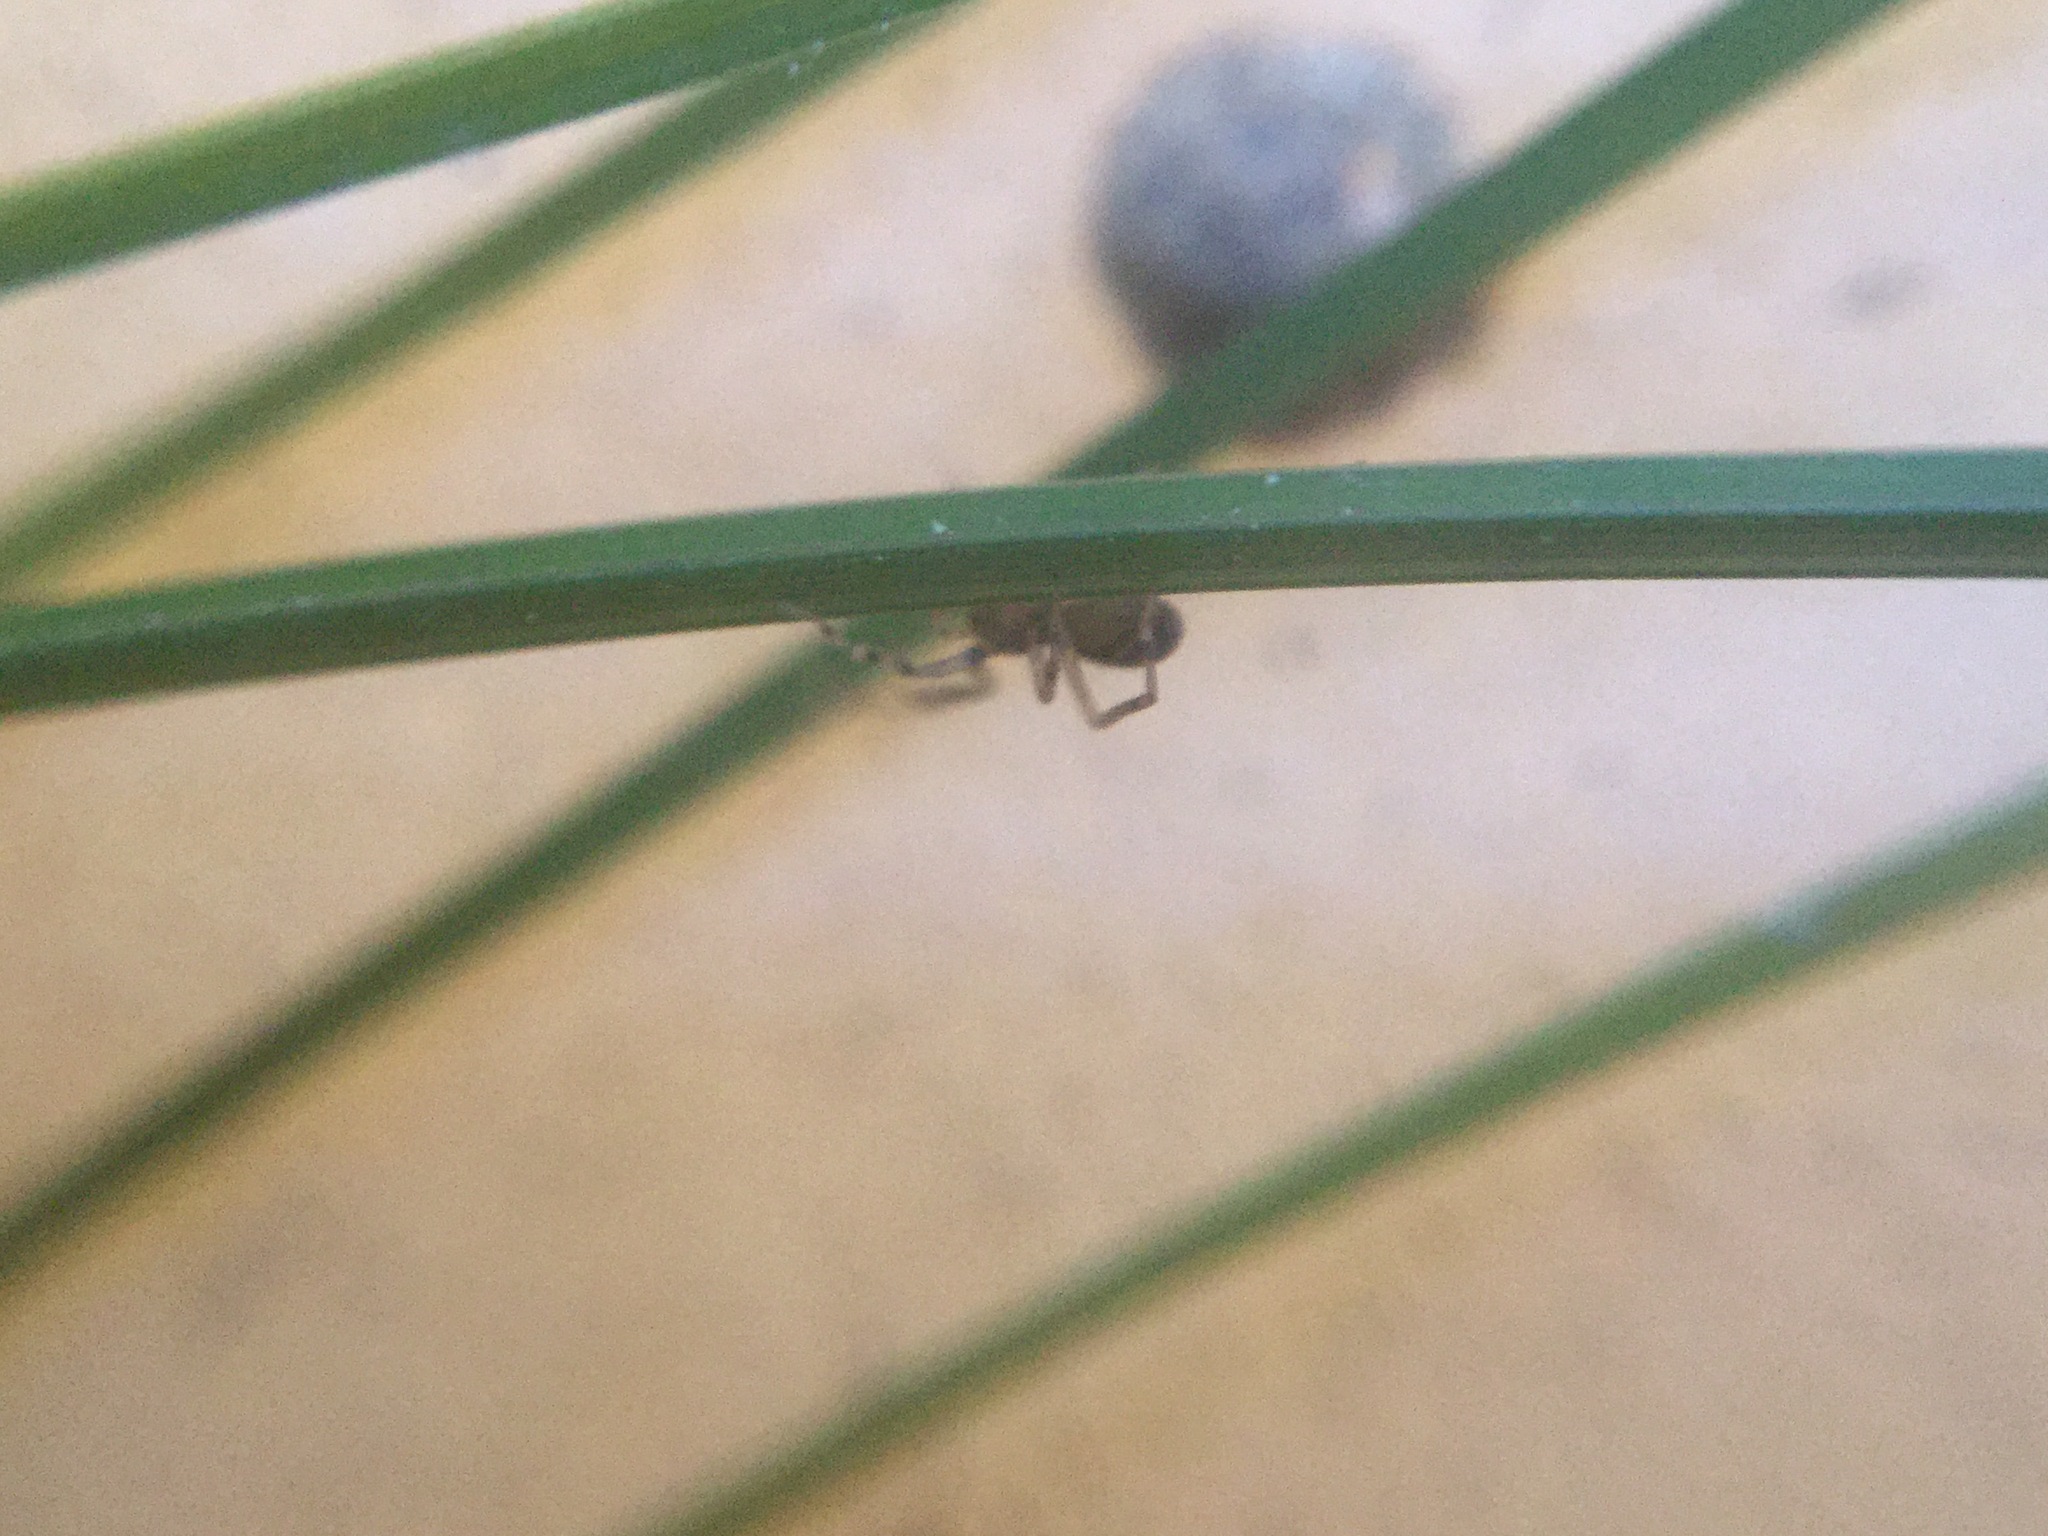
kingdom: Animalia
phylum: Arthropoda
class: Arachnida
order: Araneae
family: Phrurolithidae
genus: Phrurotimpus
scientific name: Phrurotimpus borealis
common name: Greater ant-mimic corinne spider
